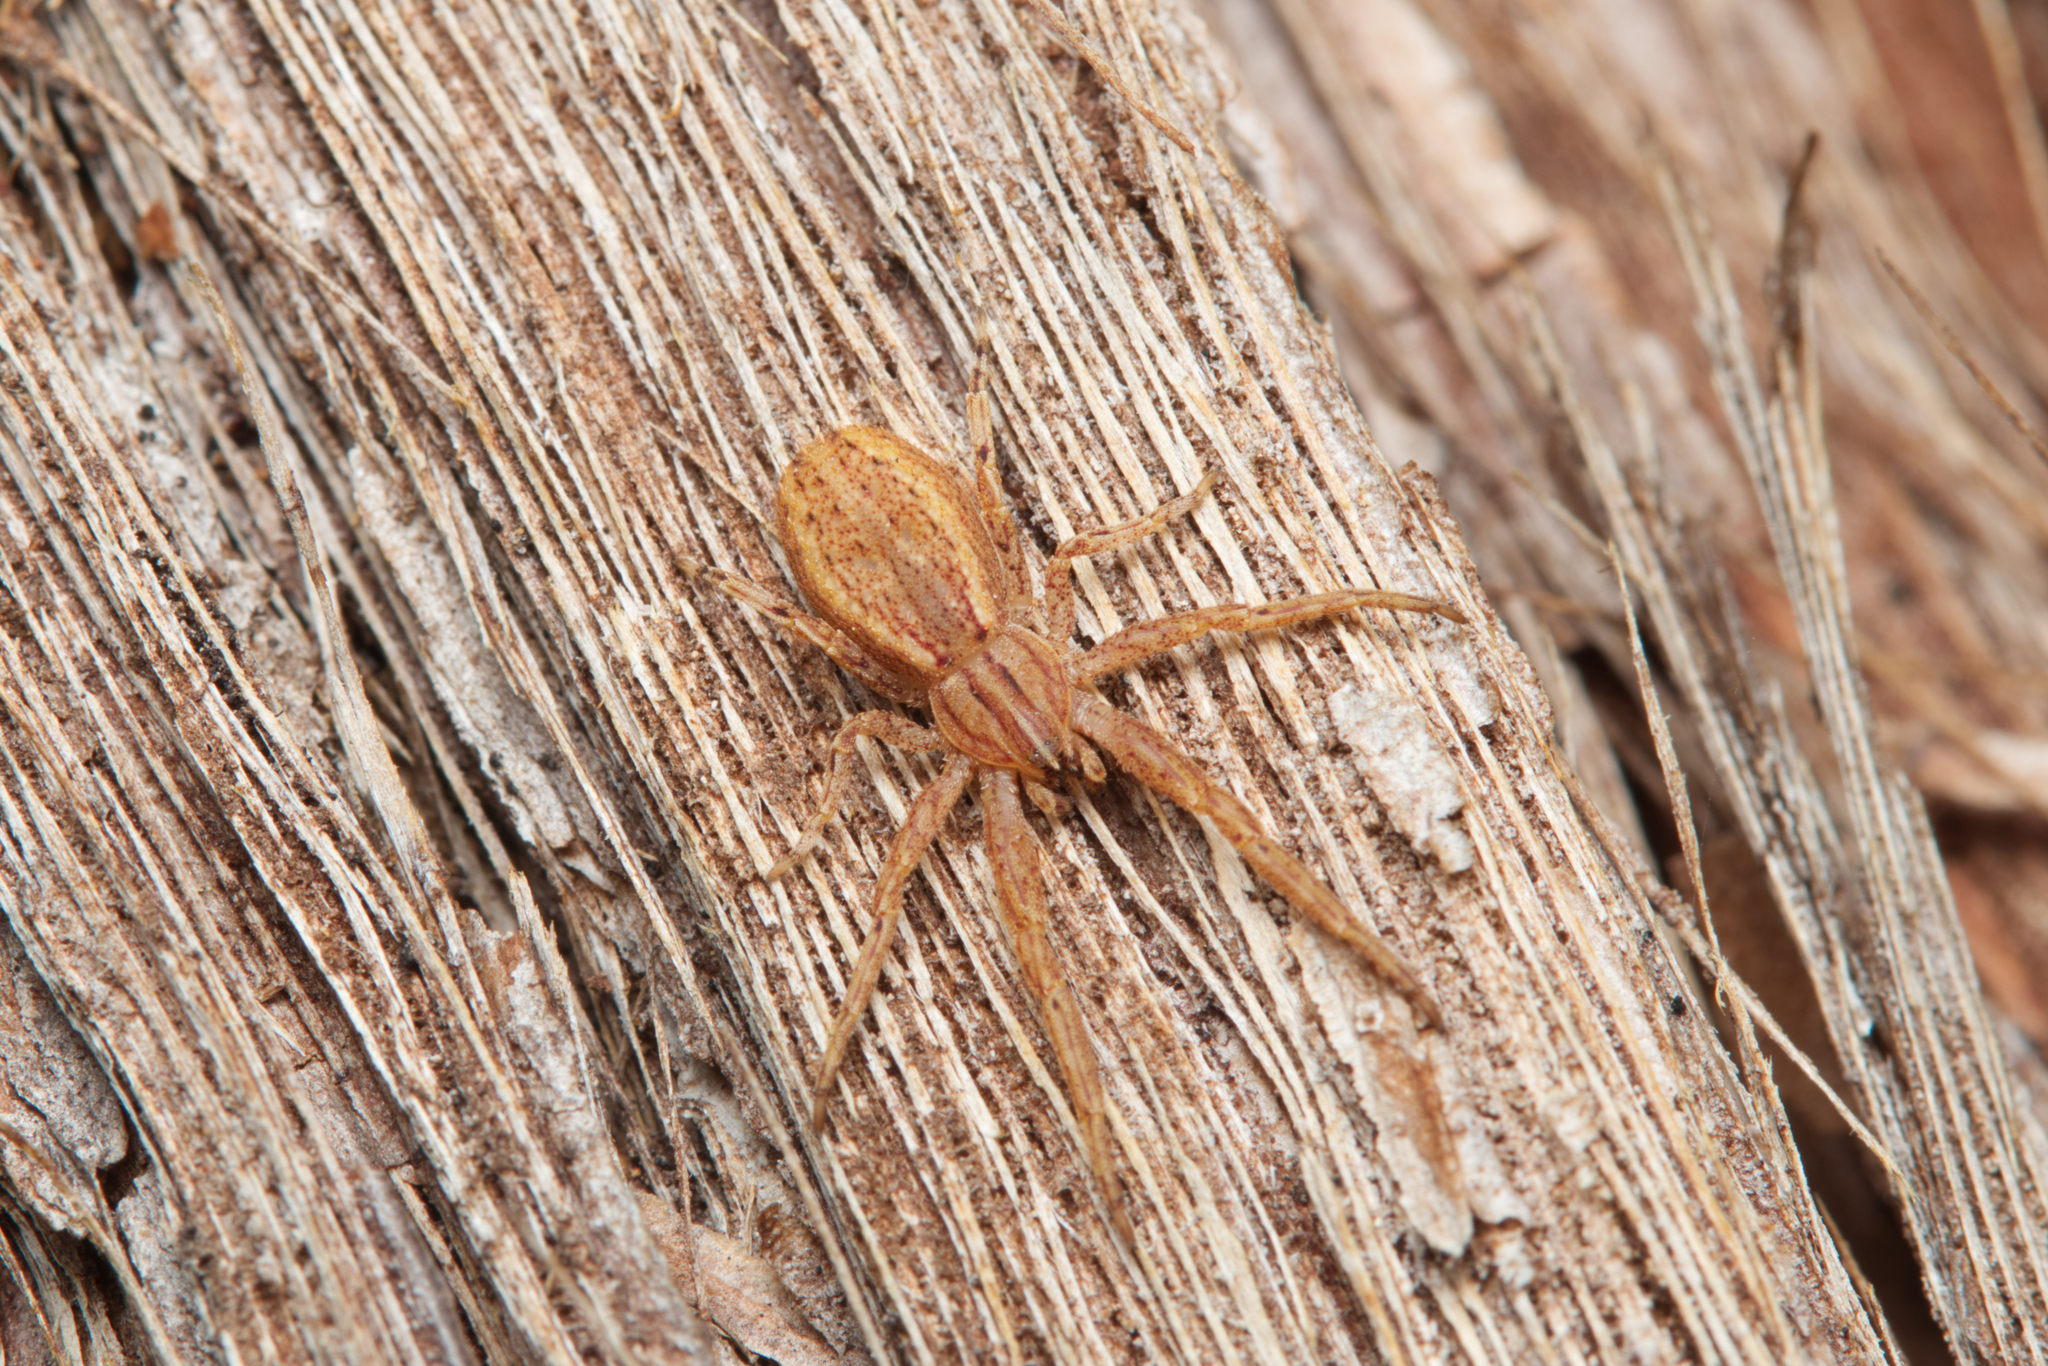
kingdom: Animalia
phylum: Arthropoda
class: Arachnida
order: Araneae
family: Thomisidae
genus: Isala
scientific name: Isala cambridgei
